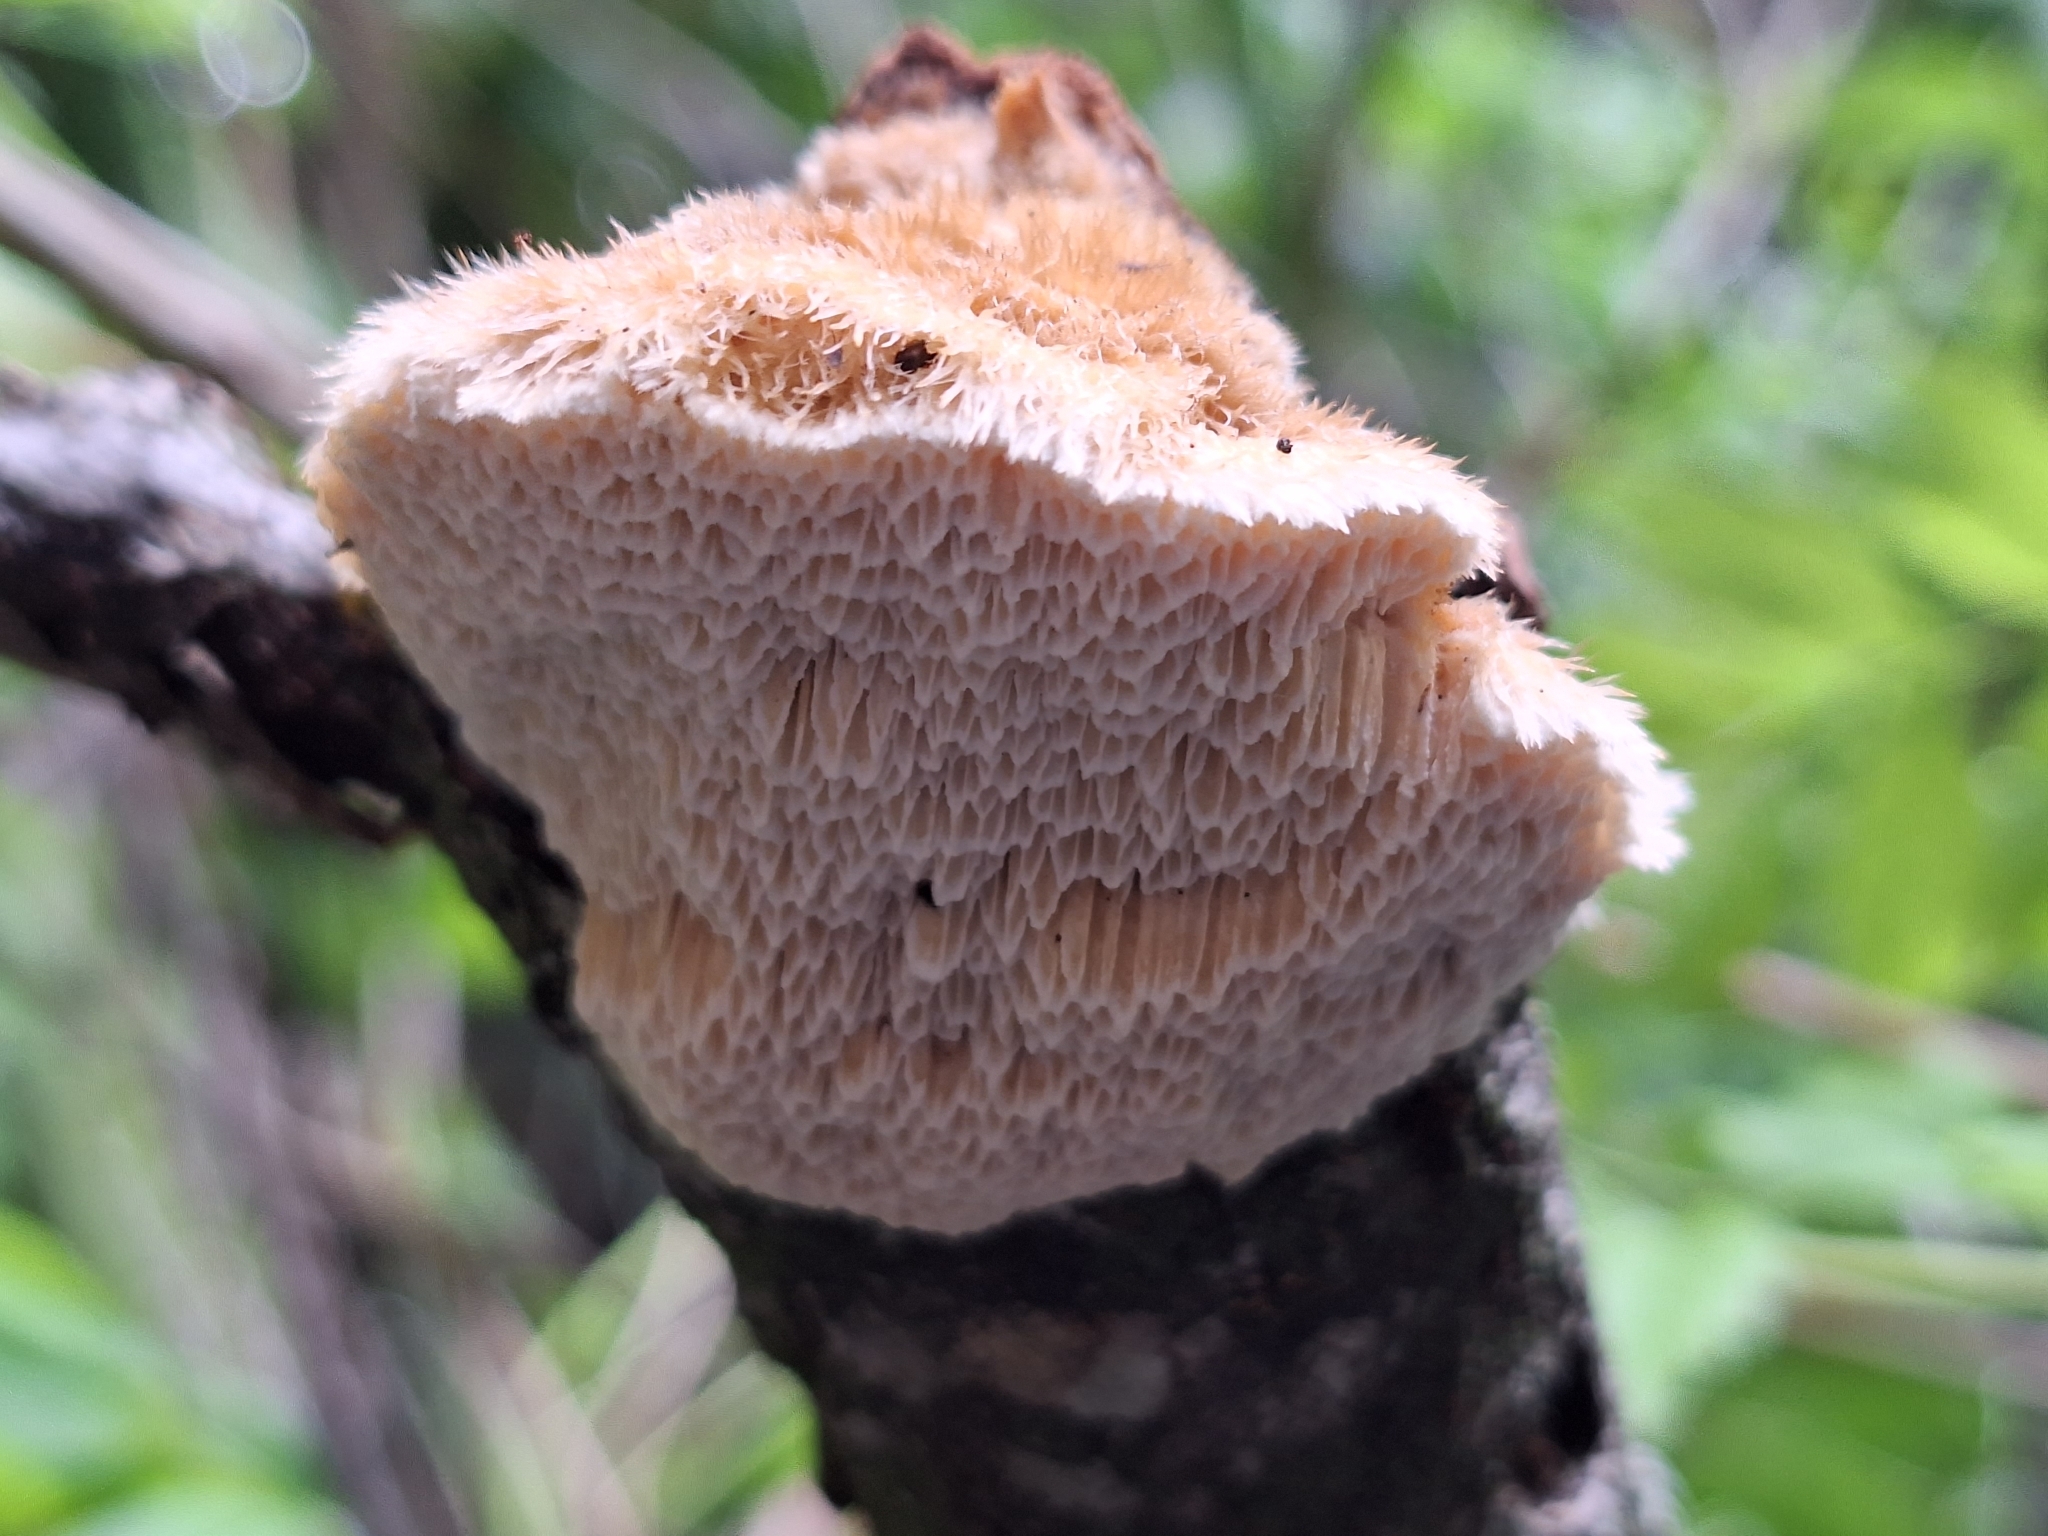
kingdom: Fungi
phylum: Basidiomycota
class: Agaricomycetes
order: Polyporales
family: Polyporaceae
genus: Trametes
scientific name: Trametes trogii
